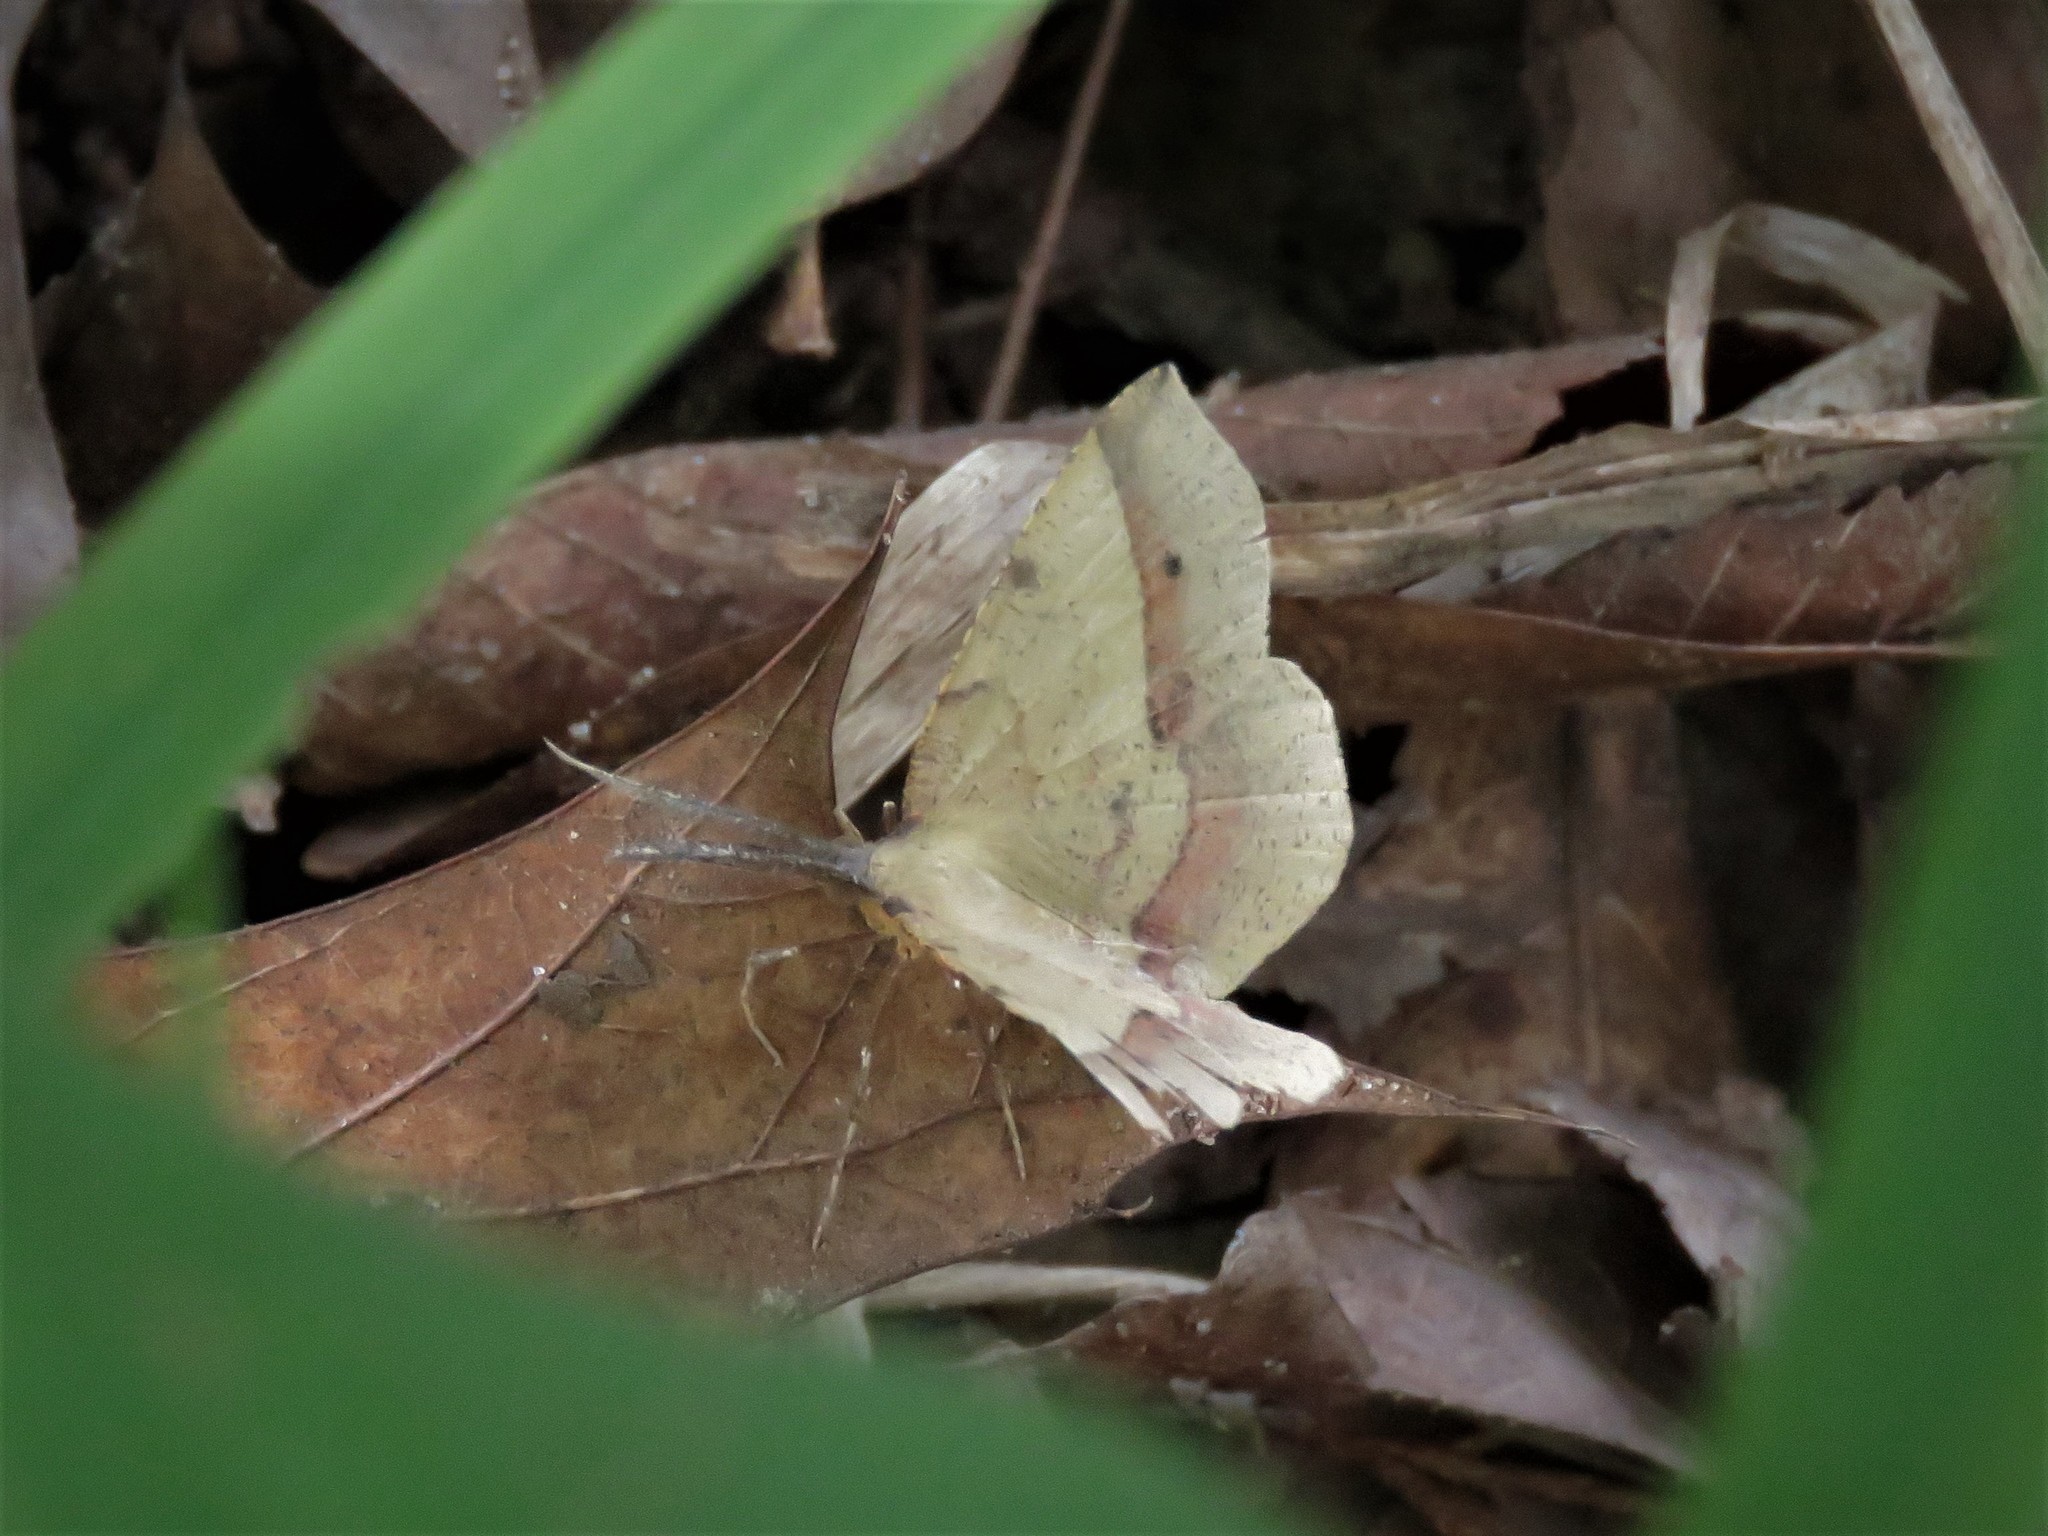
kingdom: Animalia
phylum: Arthropoda
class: Insecta
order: Lepidoptera
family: Geometridae
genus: Erastria
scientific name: Erastria cruentaria
